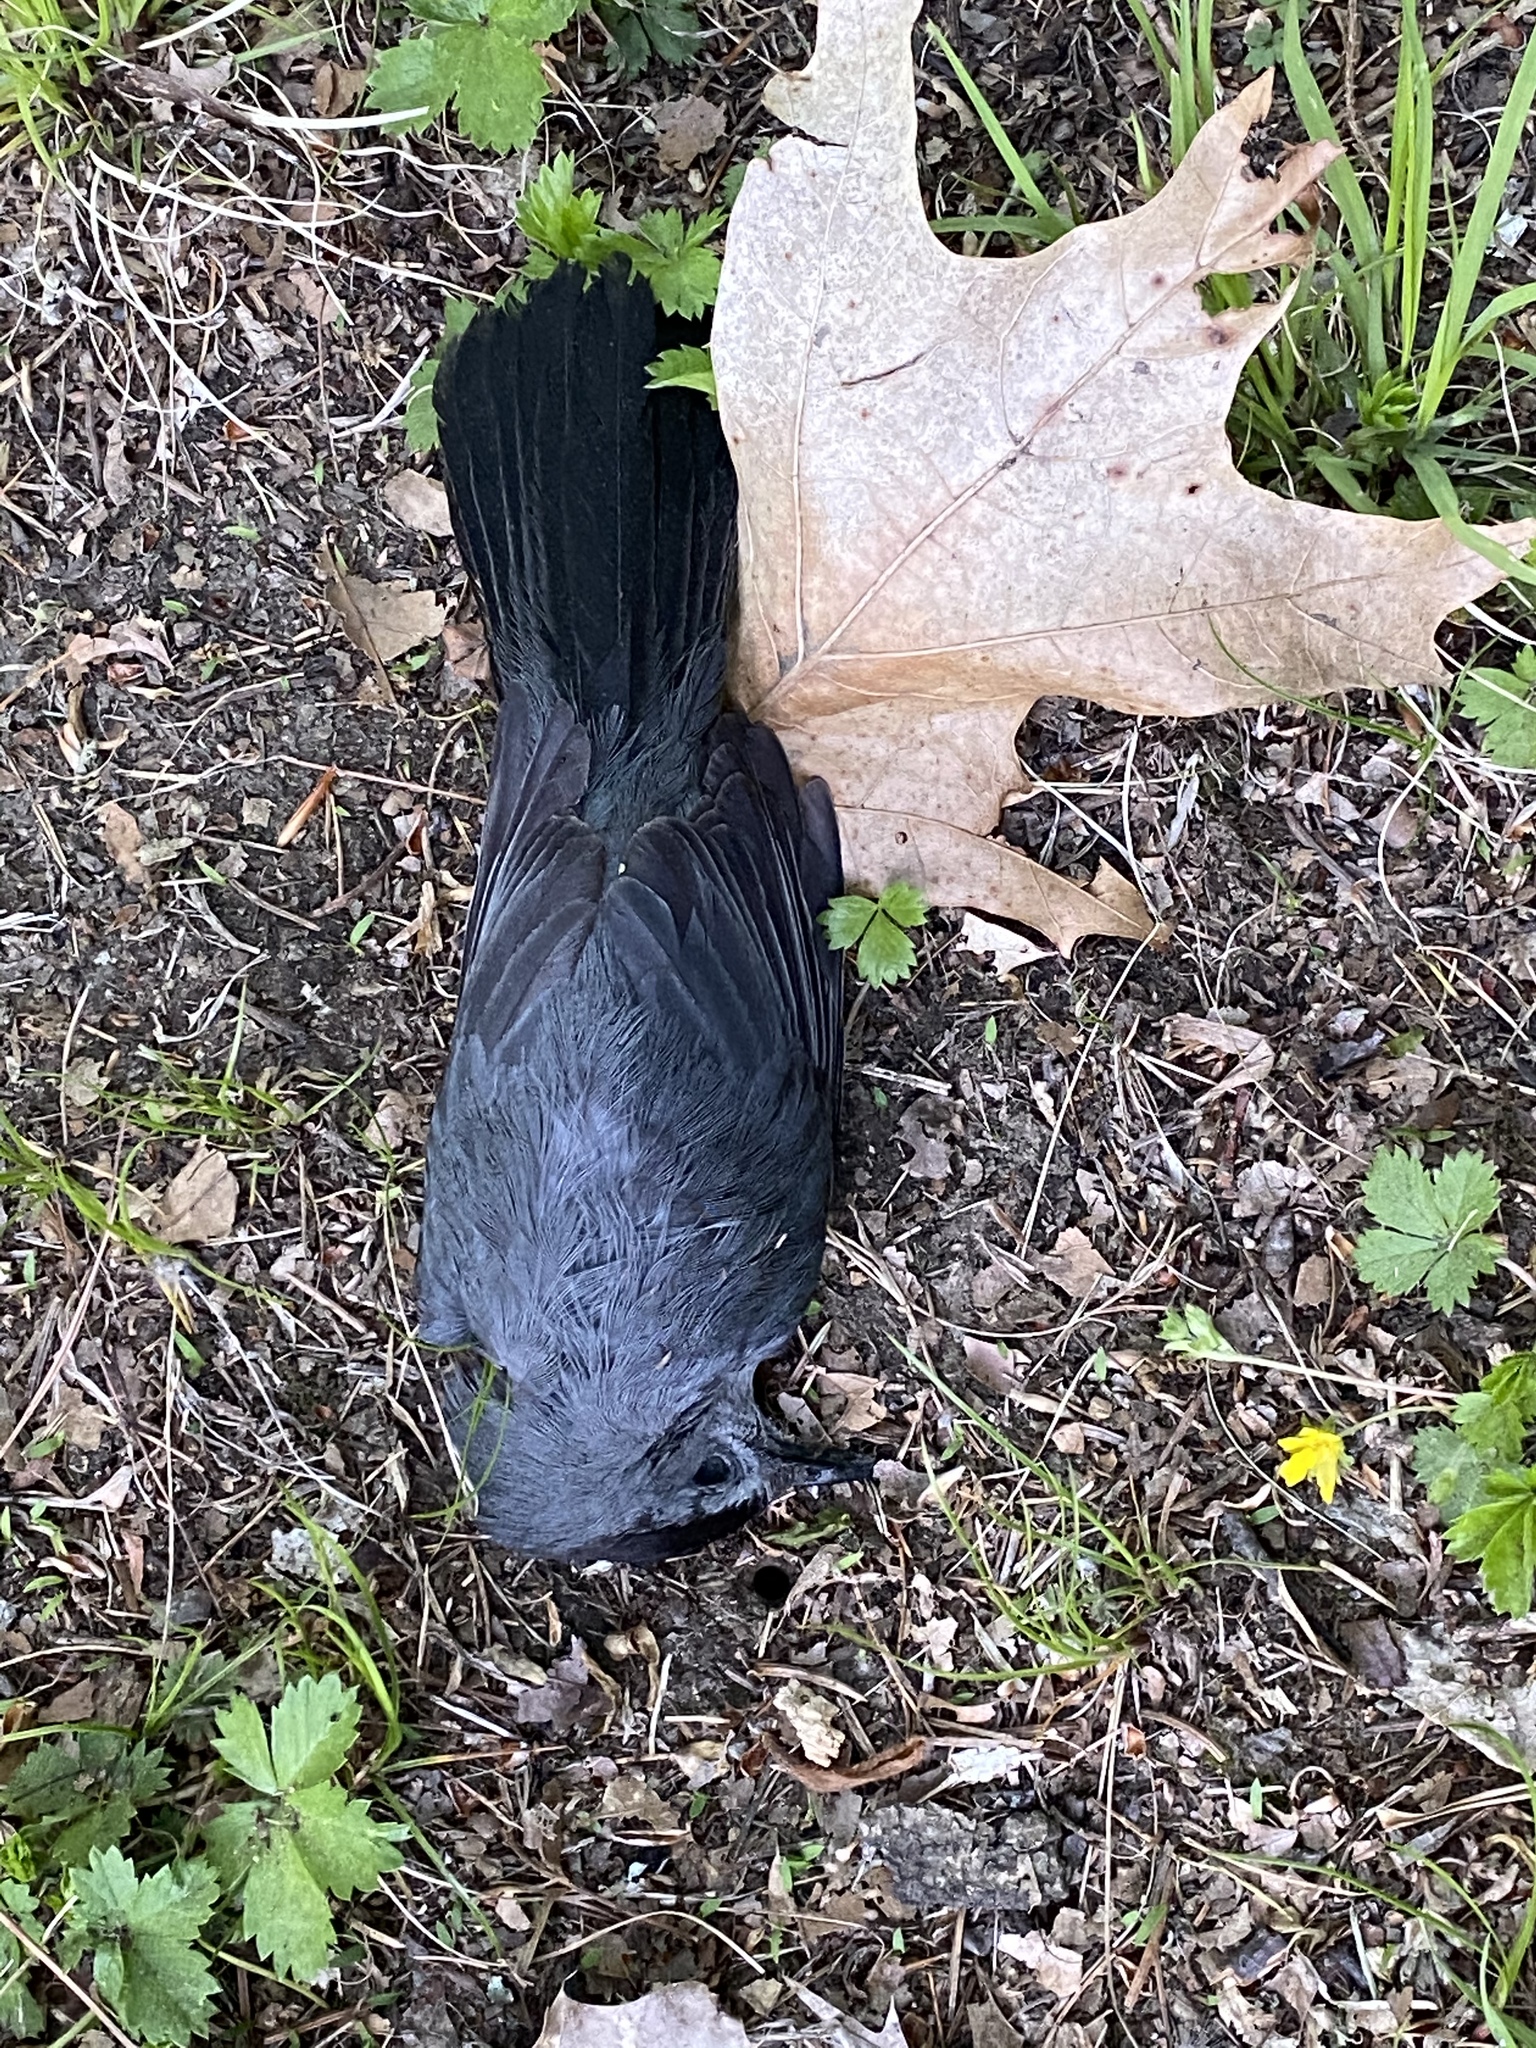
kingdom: Animalia
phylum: Chordata
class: Aves
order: Passeriformes
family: Mimidae
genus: Dumetella
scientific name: Dumetella carolinensis
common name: Gray catbird
